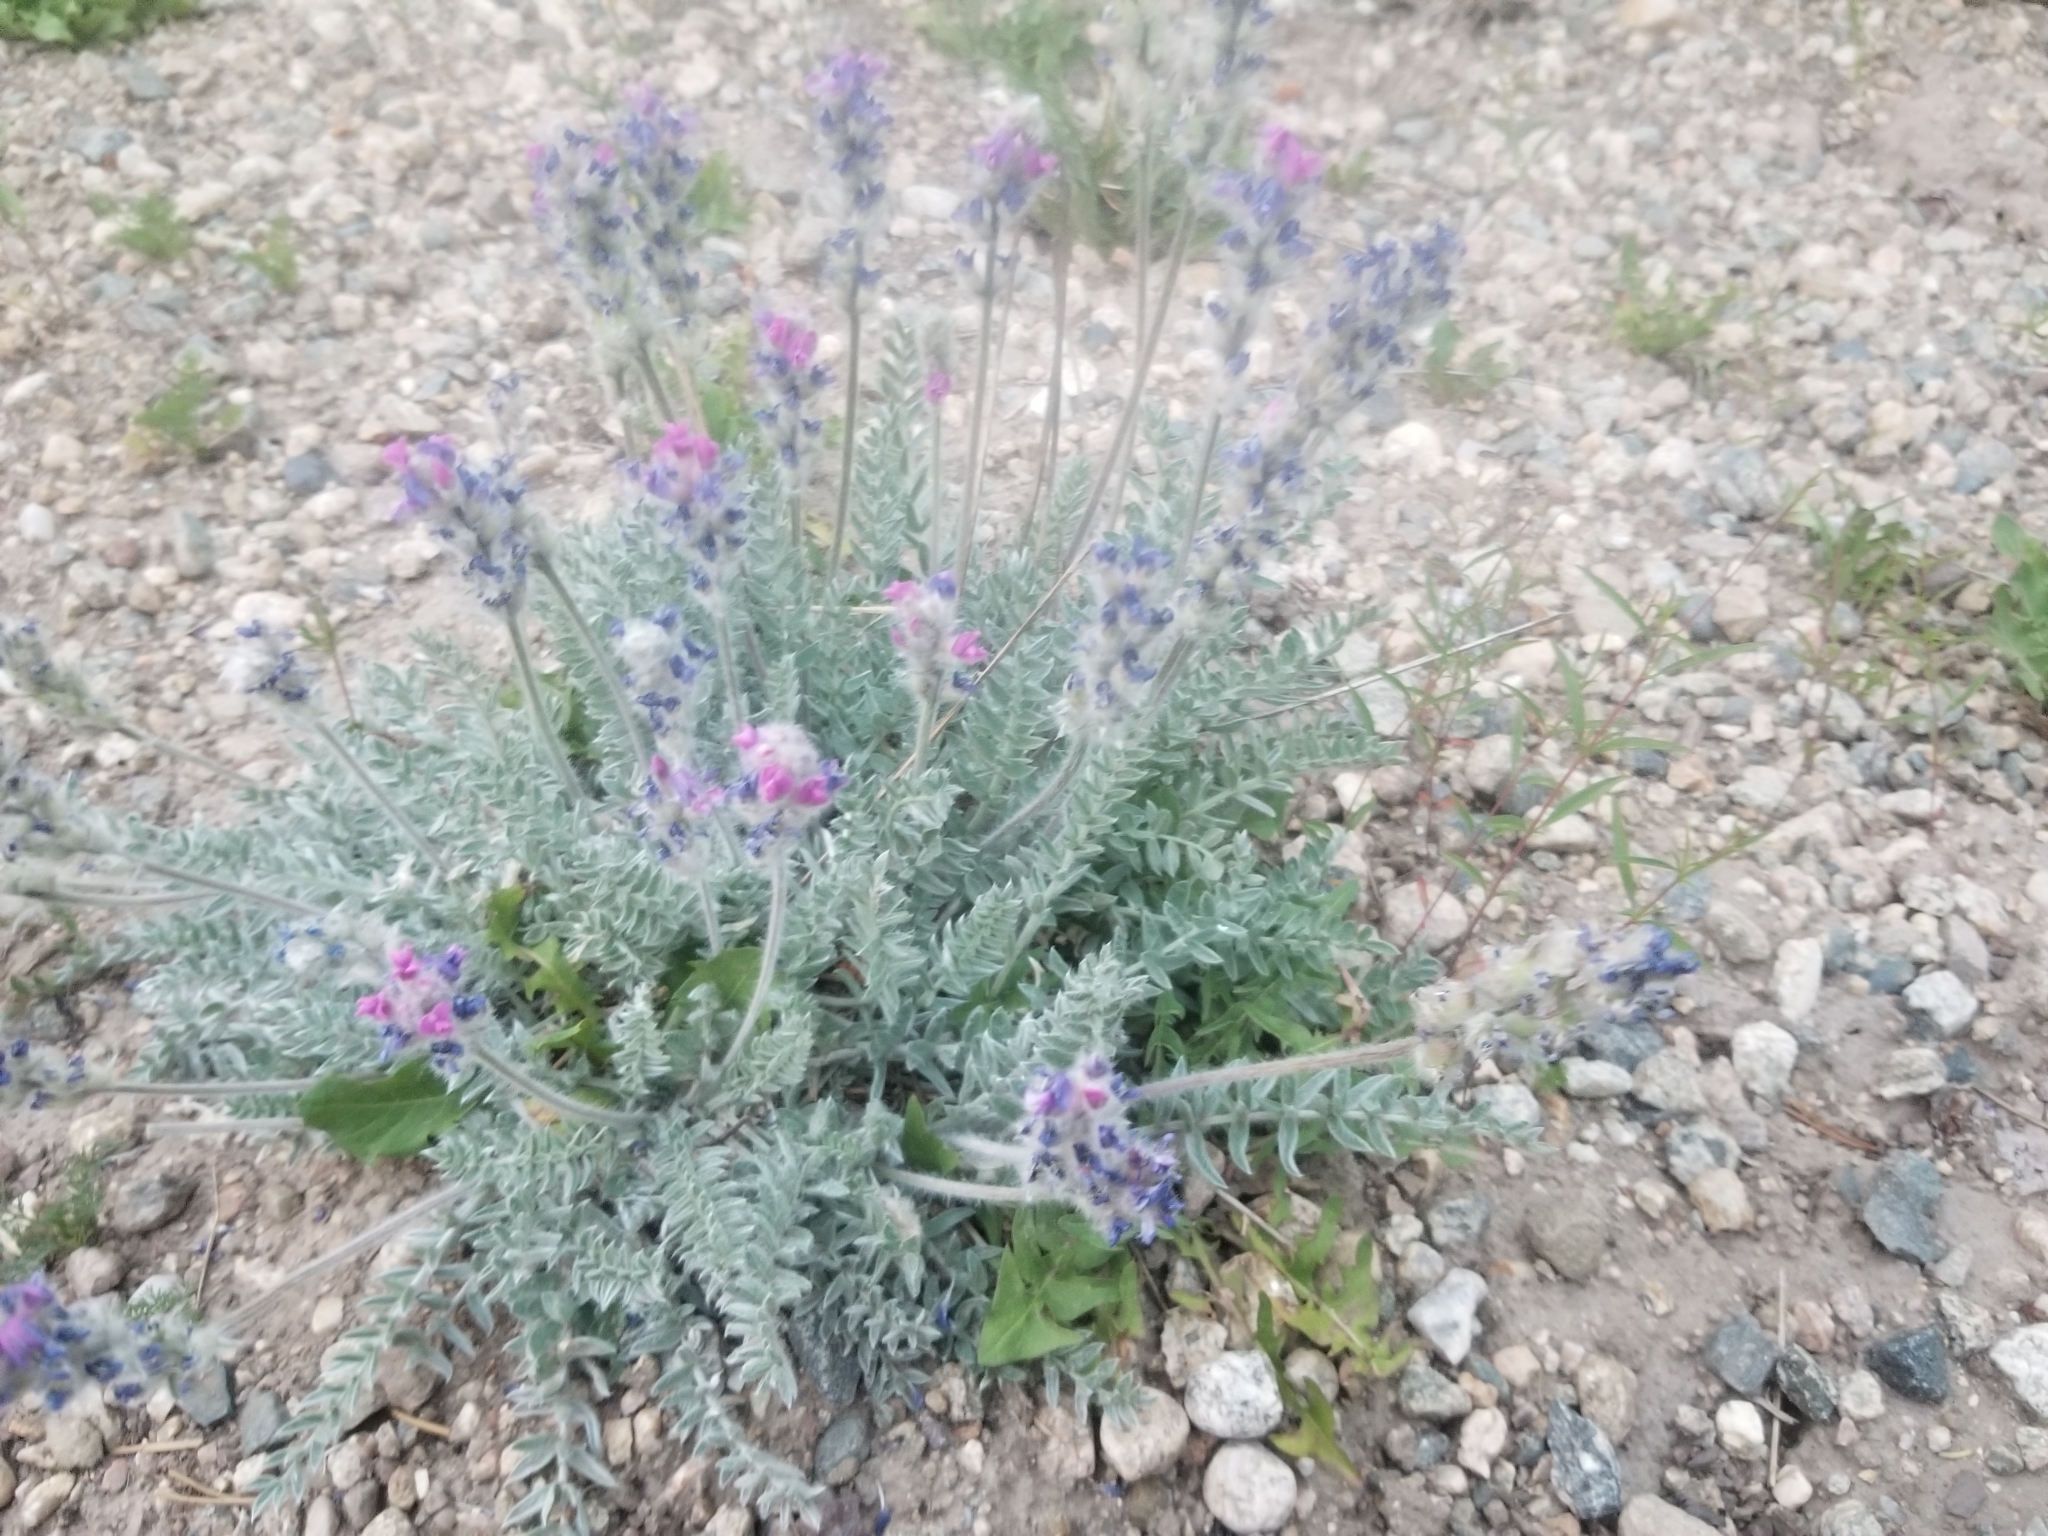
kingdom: Plantae
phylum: Tracheophyta
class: Magnoliopsida
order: Fabales
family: Fabaceae
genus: Oxytropis
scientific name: Oxytropis splendens
